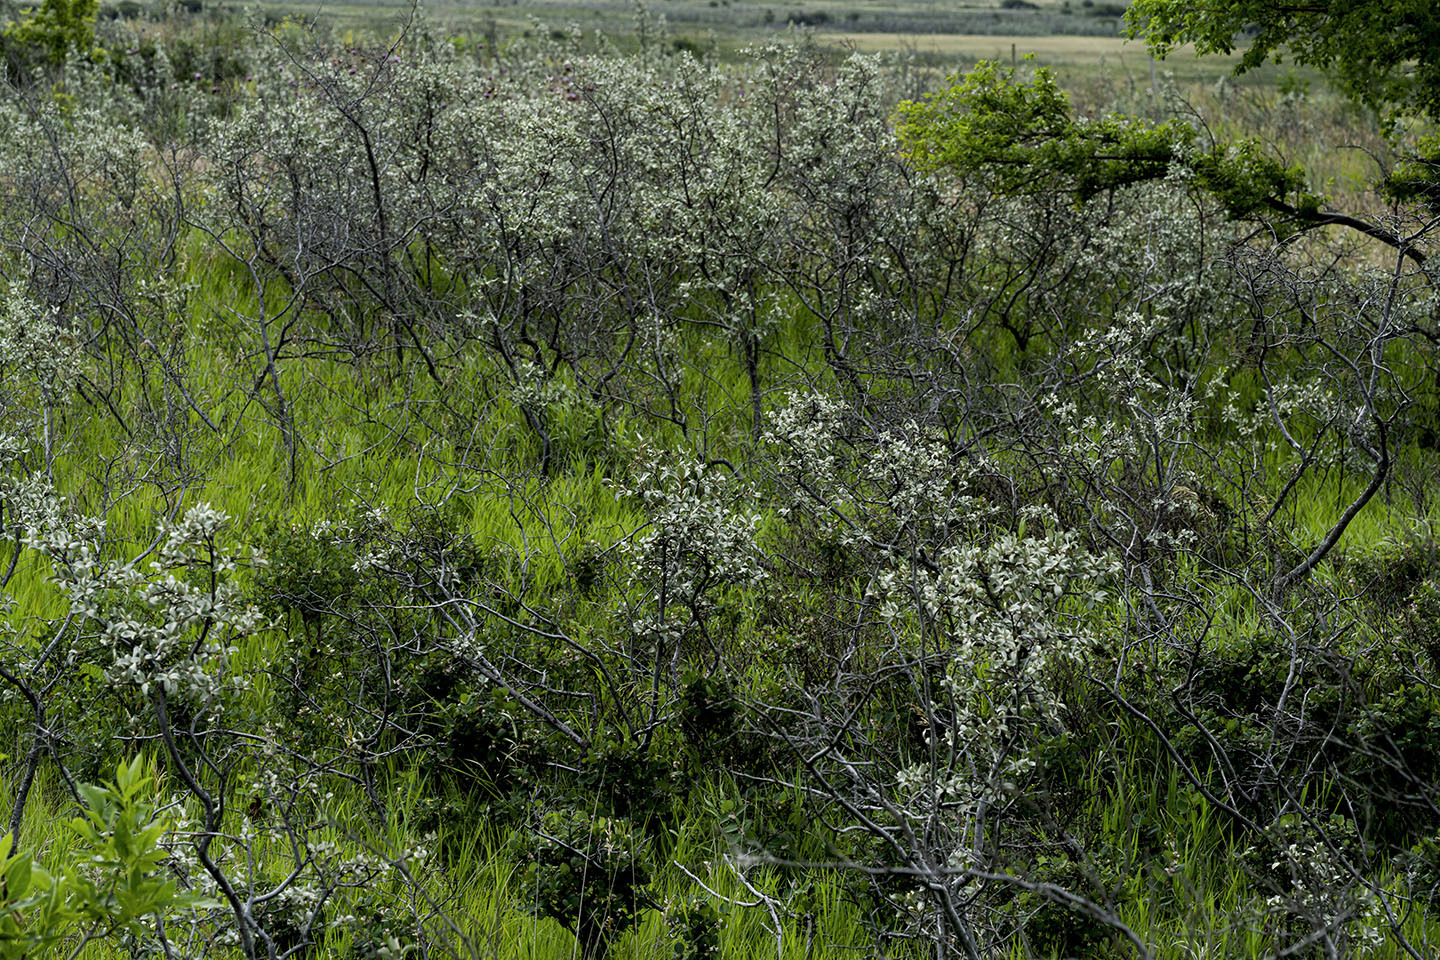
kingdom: Plantae
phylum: Tracheophyta
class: Magnoliopsida
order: Rosales
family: Elaeagnaceae
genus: Elaeagnus
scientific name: Elaeagnus commutata
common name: Silverberry
